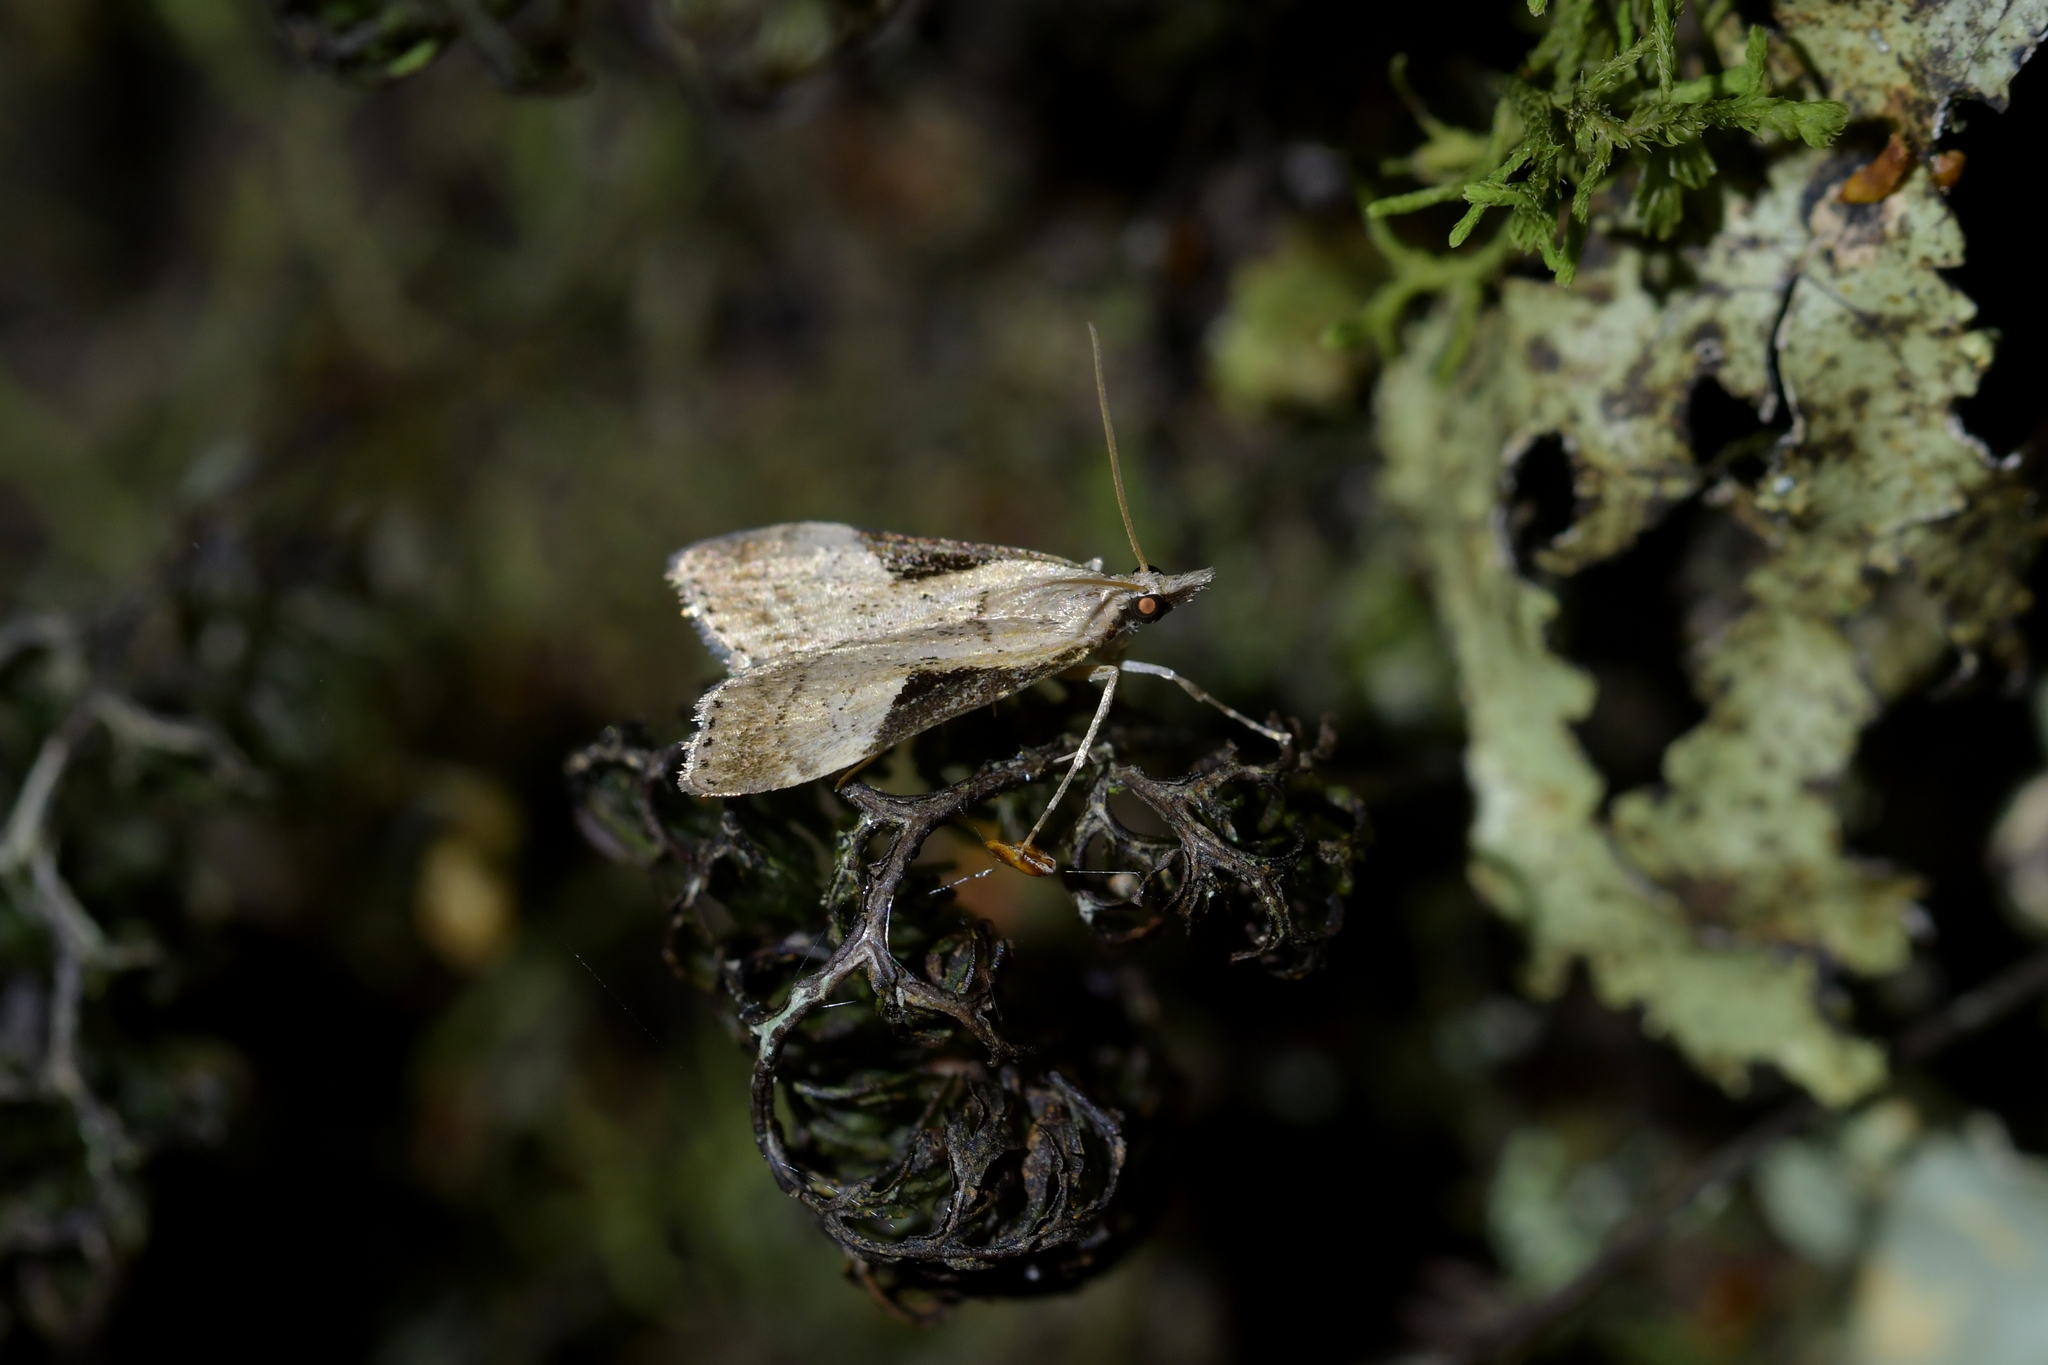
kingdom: Animalia
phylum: Arthropoda
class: Insecta
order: Lepidoptera
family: Crambidae
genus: Eudonia
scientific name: Eudonia pongalis
